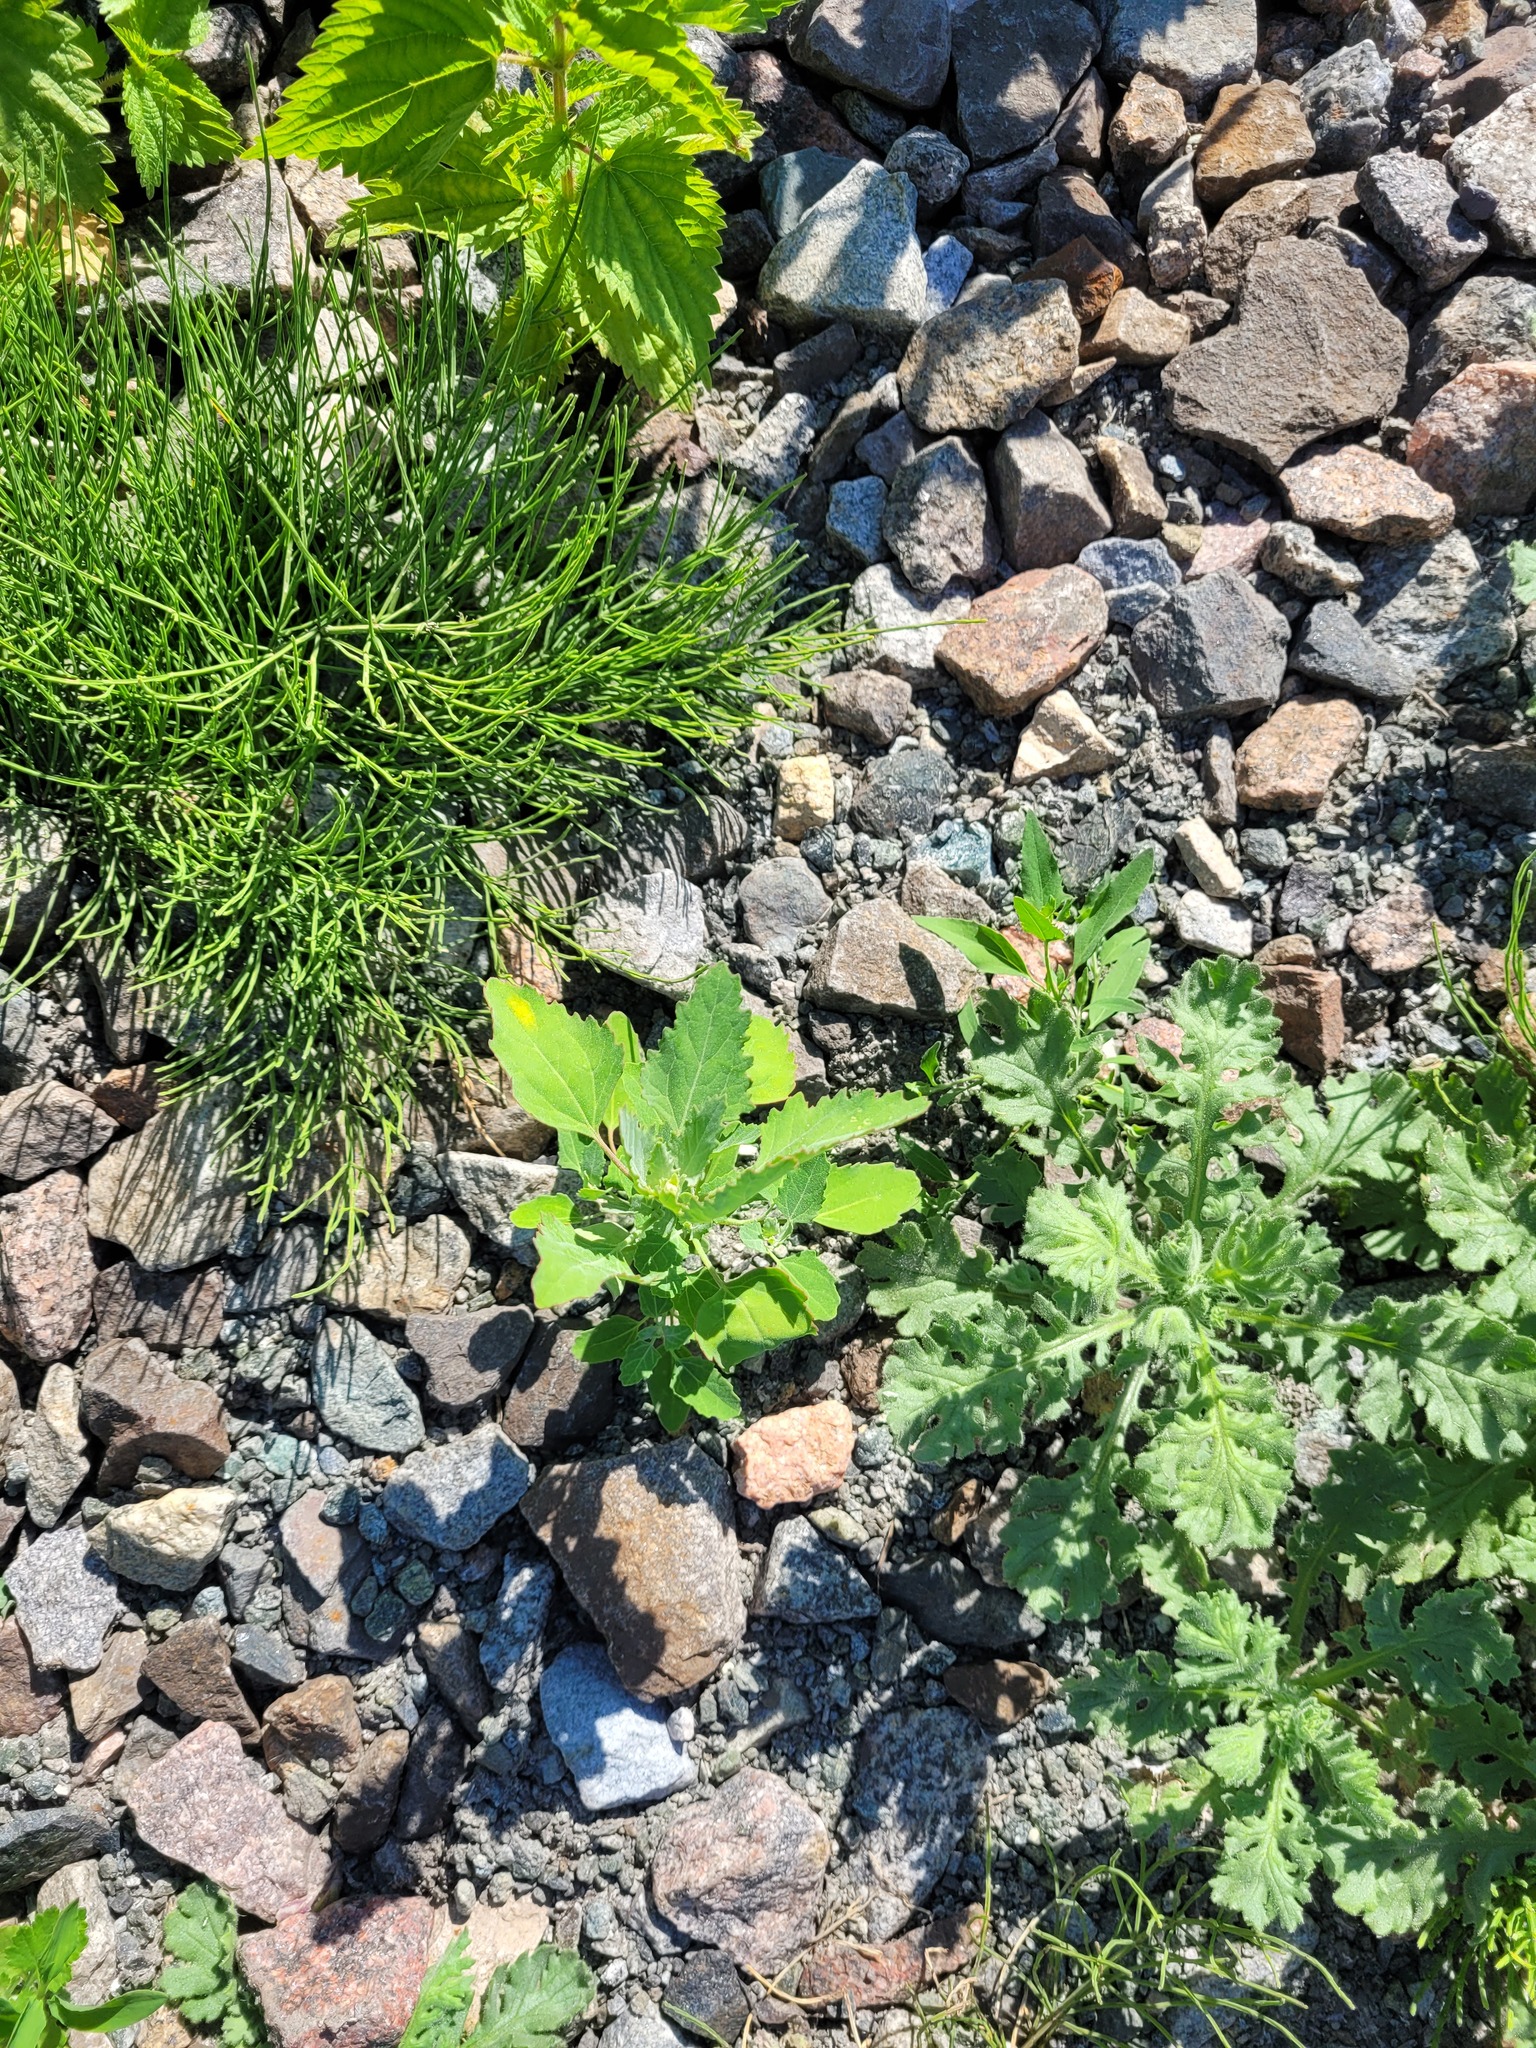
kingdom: Plantae
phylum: Tracheophyta
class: Magnoliopsida
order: Caryophyllales
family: Amaranthaceae
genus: Chenopodium
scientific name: Chenopodium album
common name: Fat-hen
